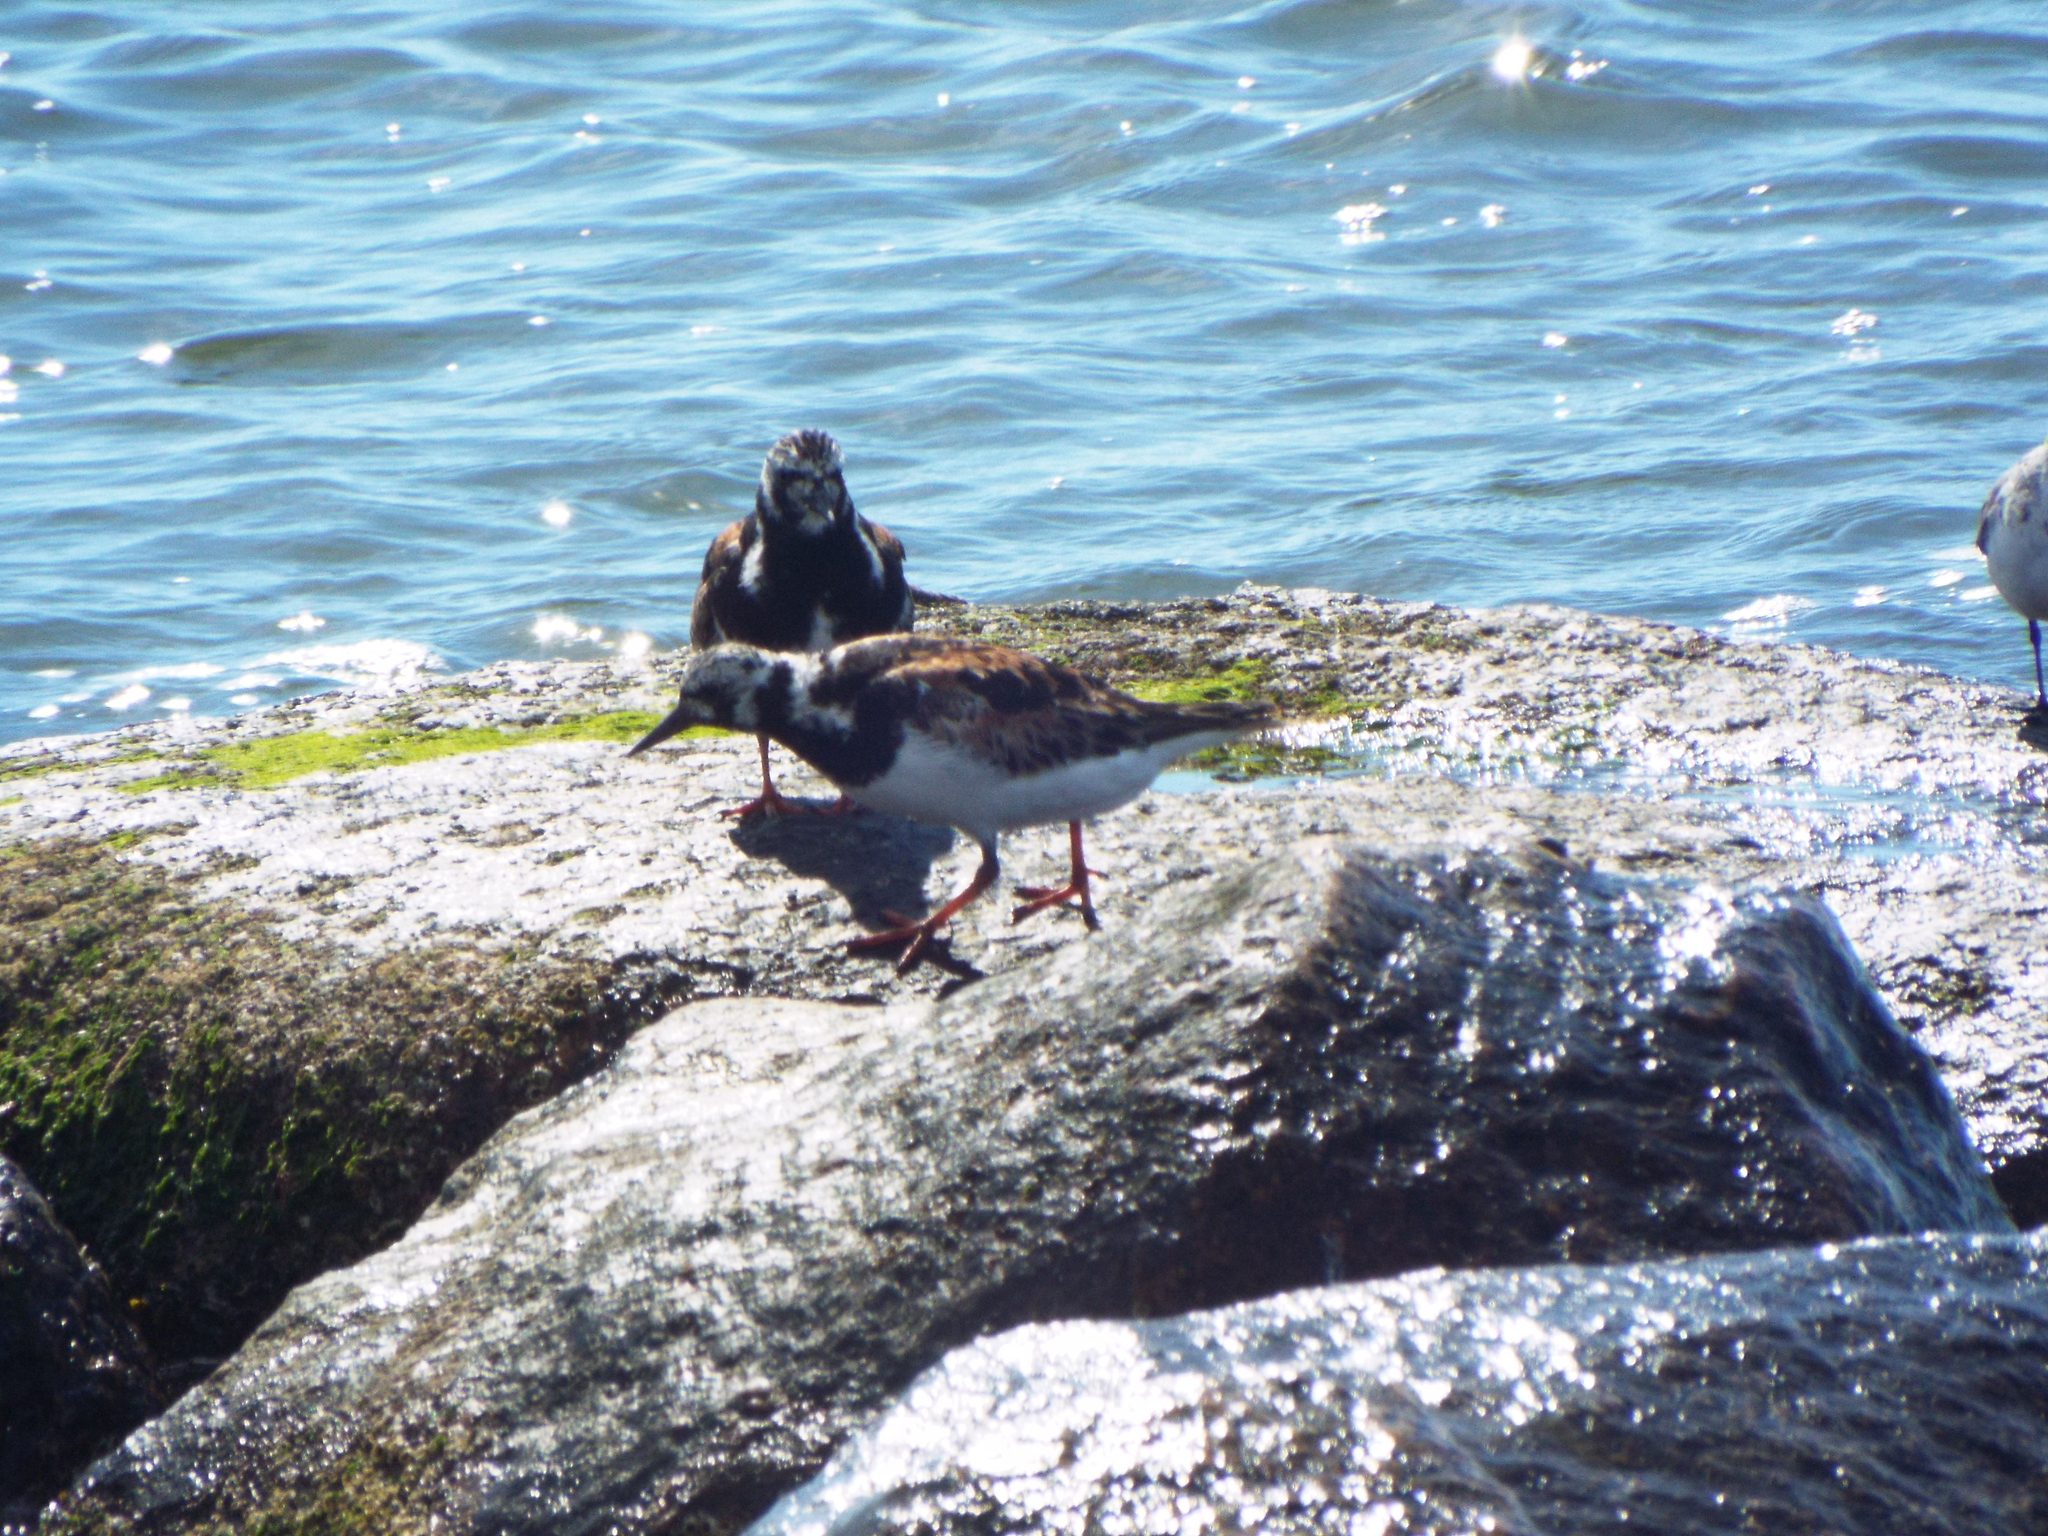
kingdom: Animalia
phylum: Chordata
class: Aves
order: Charadriiformes
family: Scolopacidae
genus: Arenaria
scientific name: Arenaria interpres
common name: Ruddy turnstone
